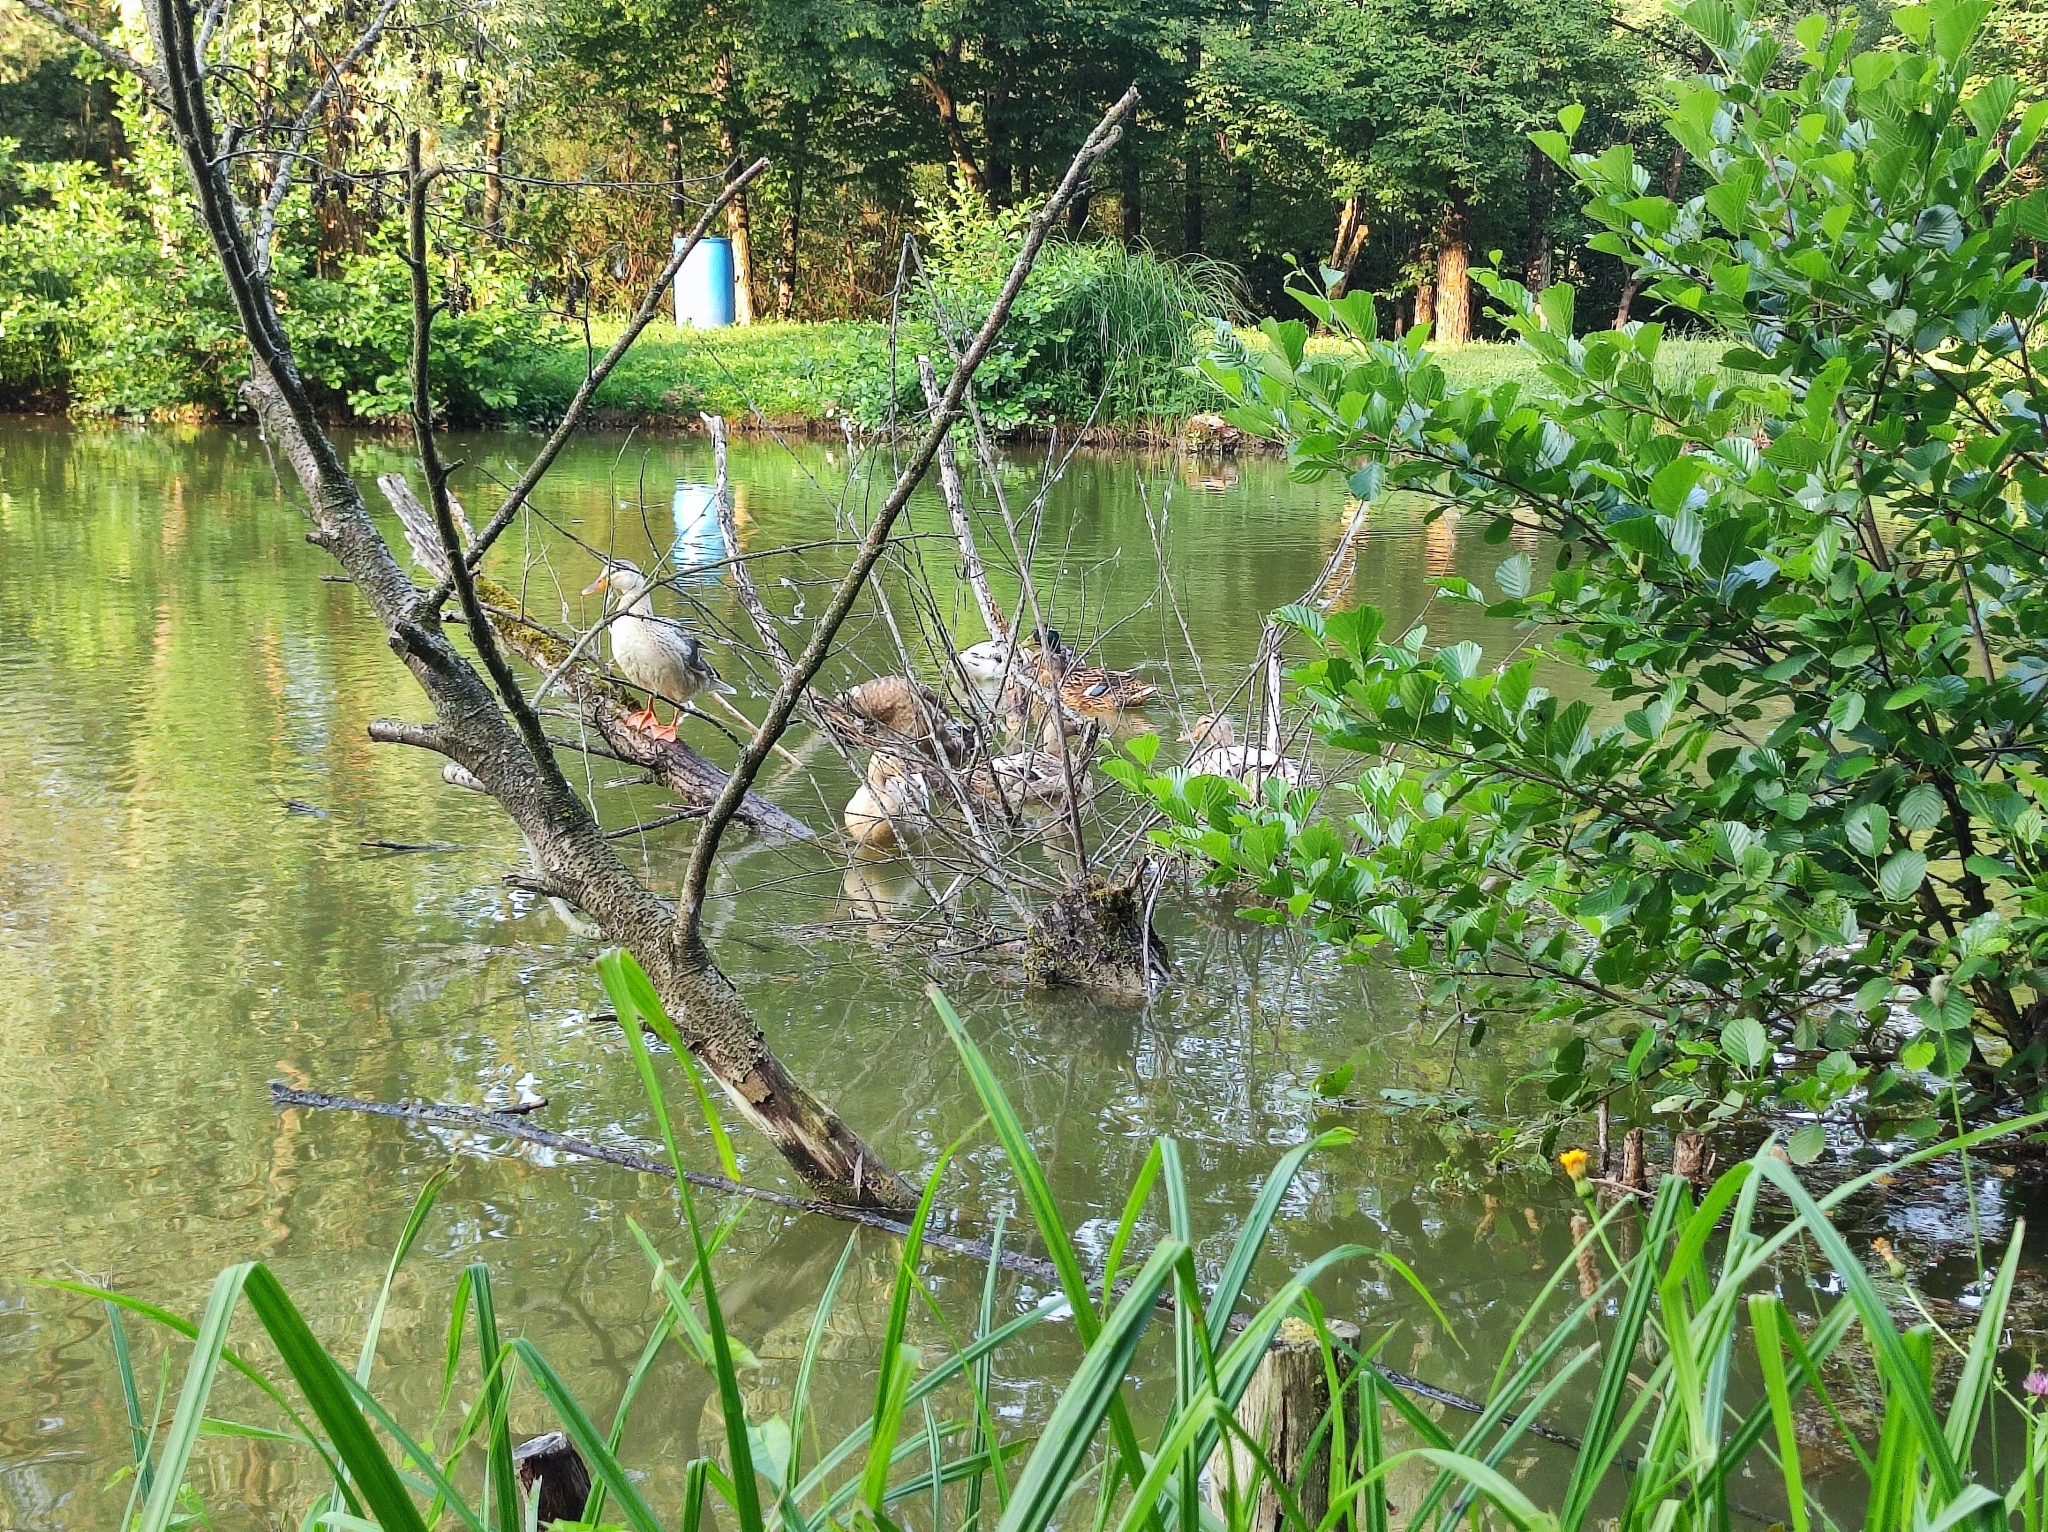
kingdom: Animalia
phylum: Chordata
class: Aves
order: Anseriformes
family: Anatidae
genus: Anas
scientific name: Anas platyrhynchos
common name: Mallard
